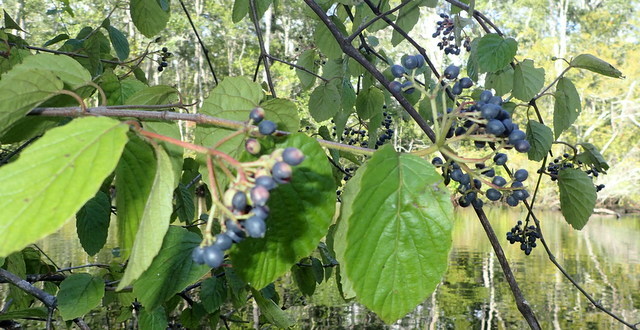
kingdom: Plantae
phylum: Tracheophyta
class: Magnoliopsida
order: Dipsacales
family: Viburnaceae
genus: Viburnum
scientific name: Viburnum scabrellum
